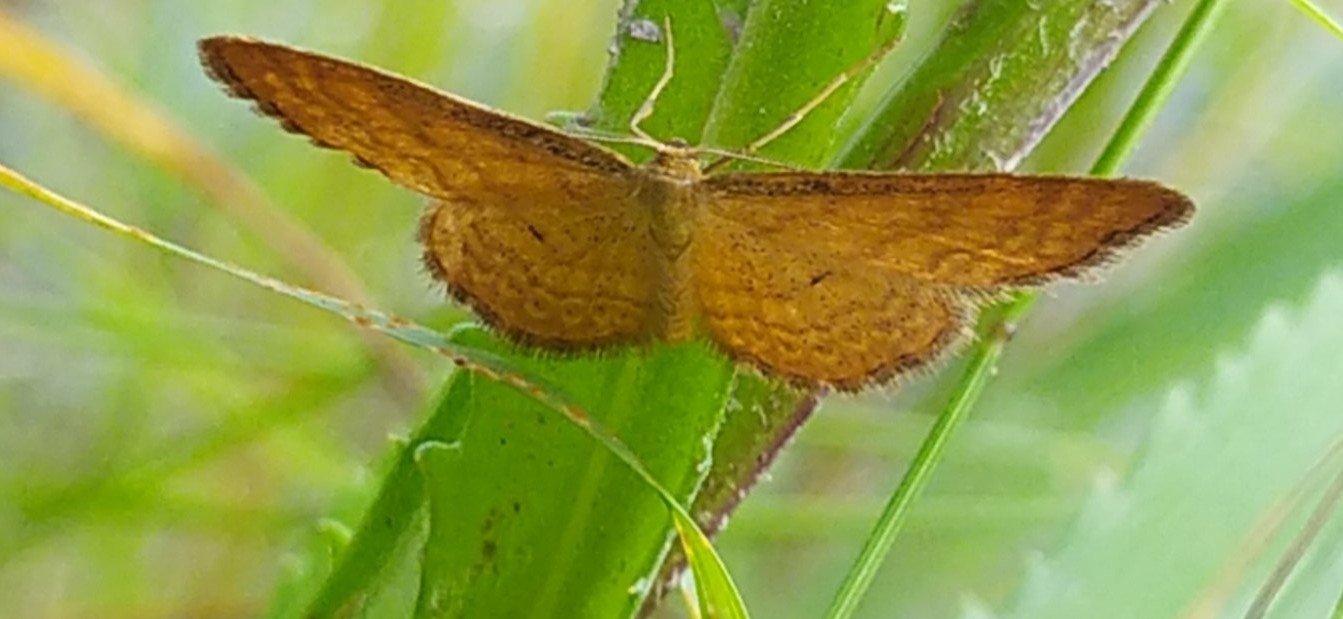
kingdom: Animalia
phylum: Arthropoda
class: Insecta
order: Lepidoptera
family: Geometridae
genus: Idaea
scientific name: Idaea serpentata
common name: Ochraceous wave
